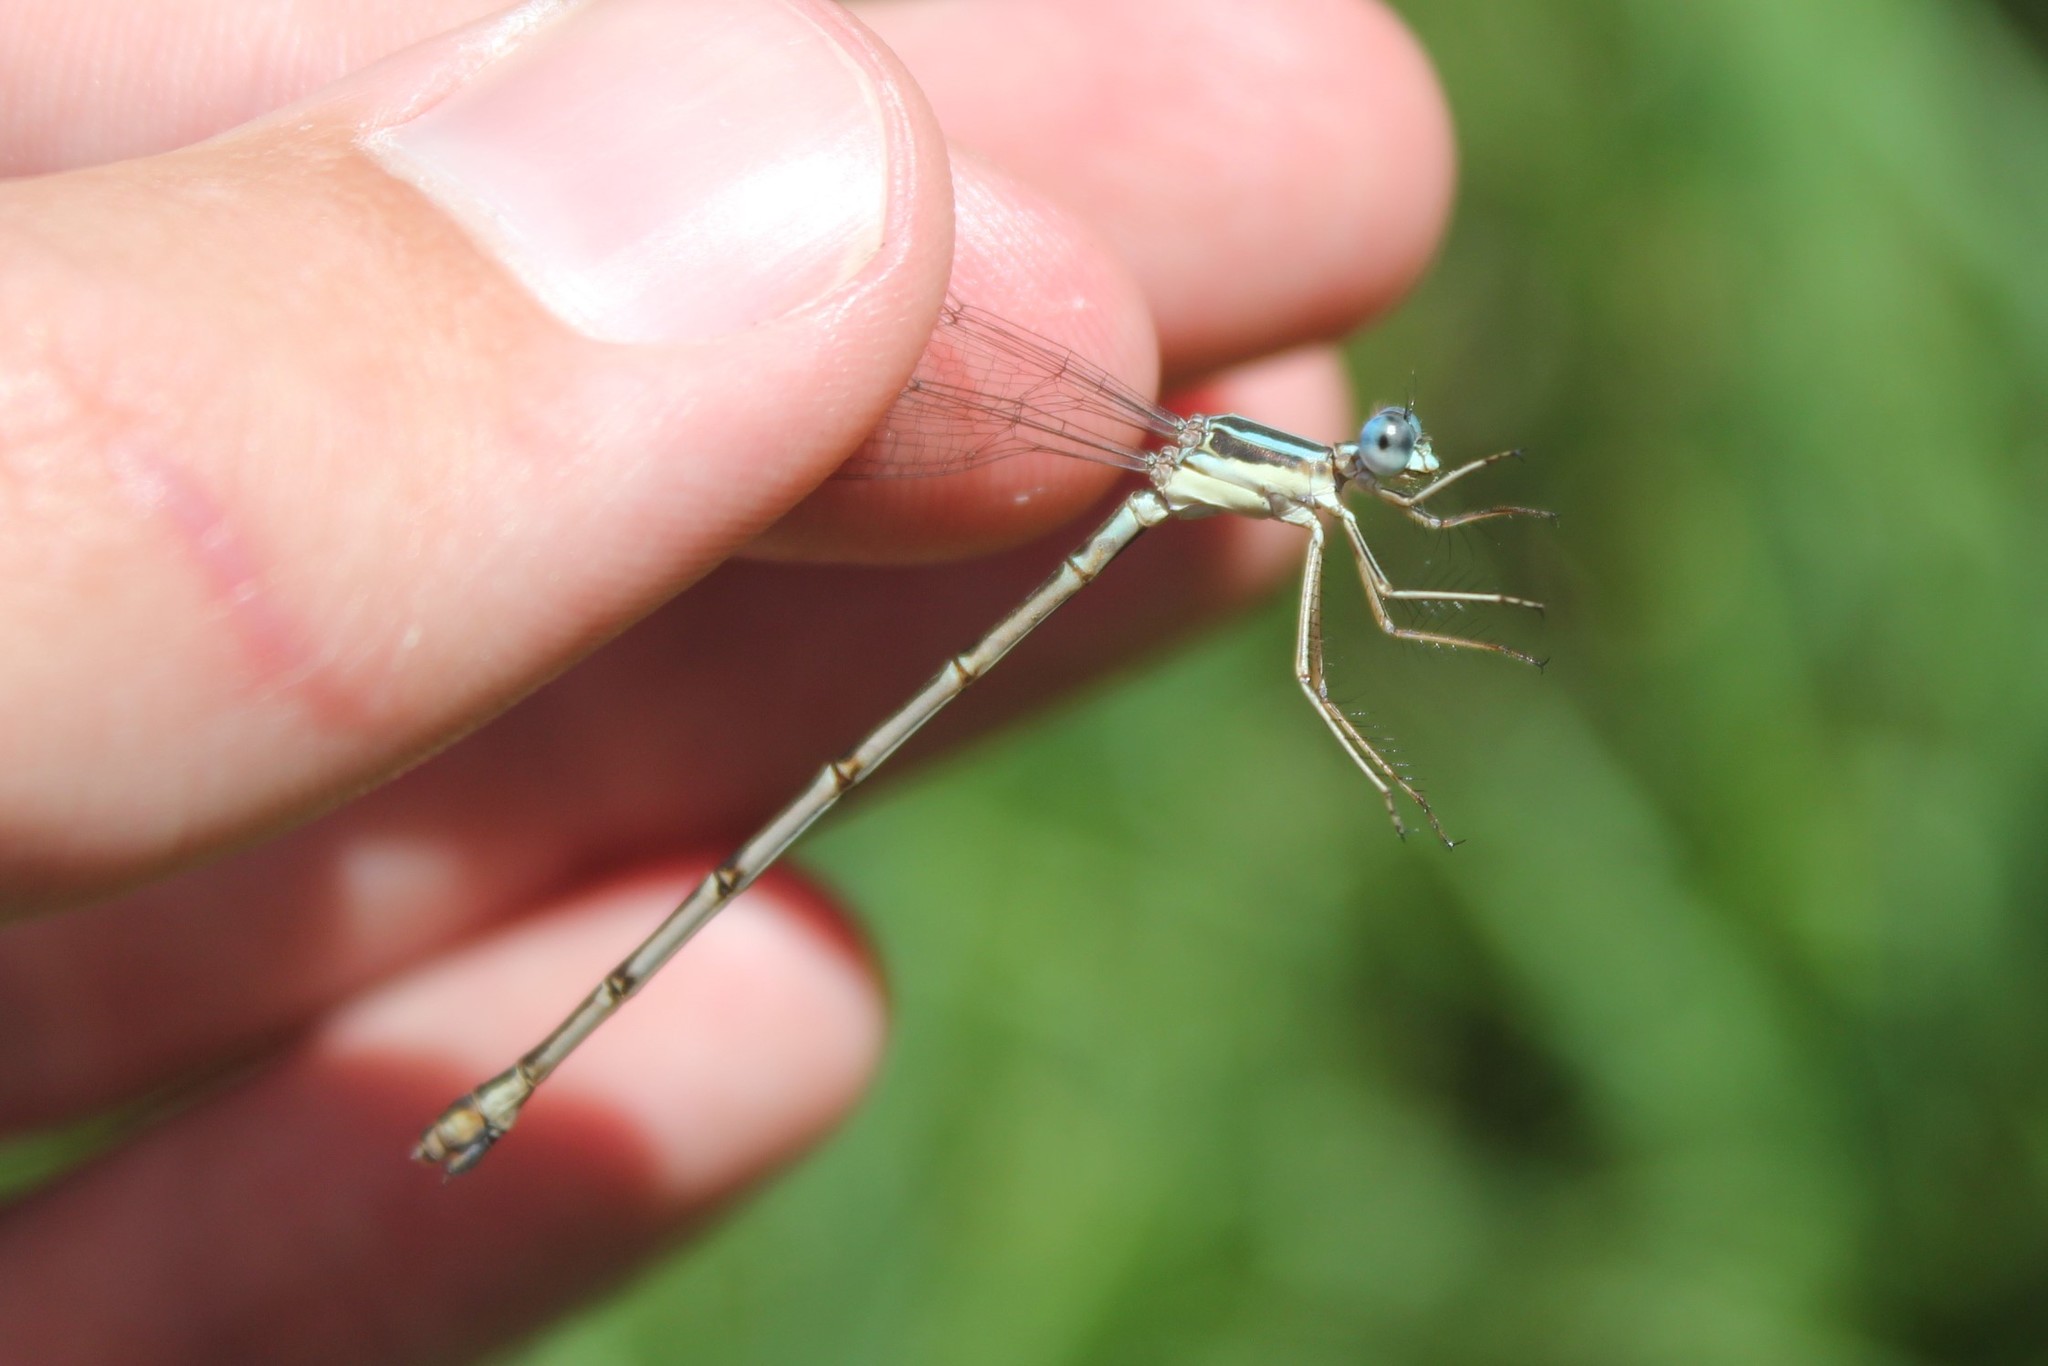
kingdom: Animalia
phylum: Arthropoda
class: Insecta
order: Odonata
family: Lestidae
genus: Lestes
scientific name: Lestes rectangularis
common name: Slender spreadwing
